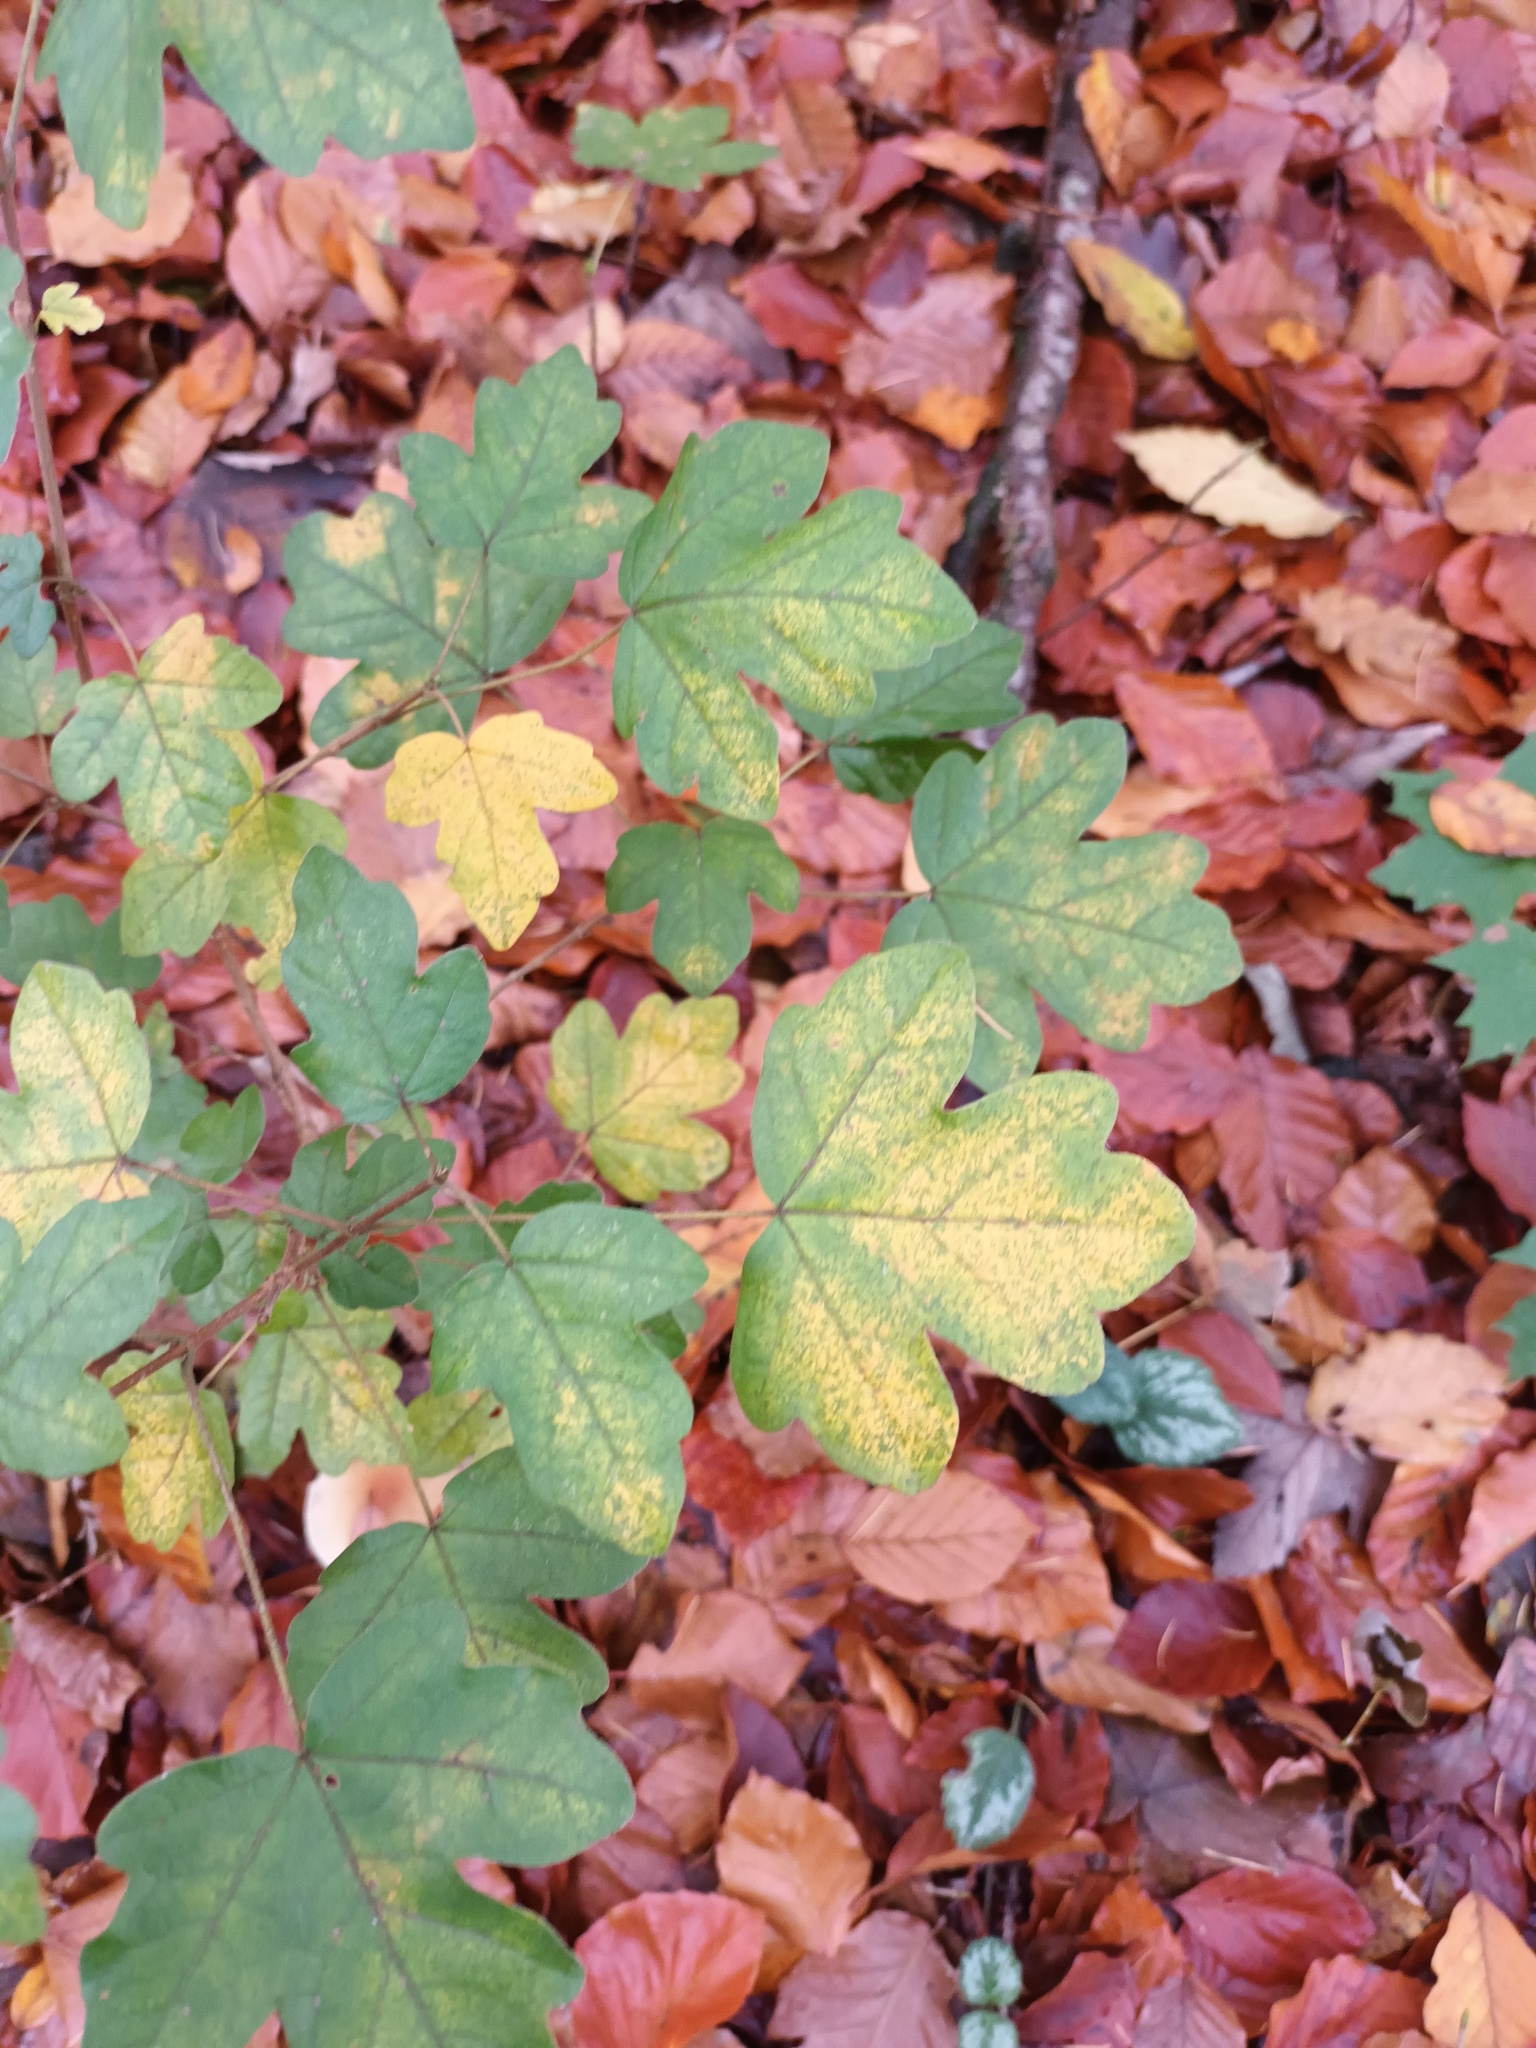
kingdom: Plantae
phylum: Tracheophyta
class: Magnoliopsida
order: Sapindales
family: Sapindaceae
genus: Acer
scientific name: Acer campestre
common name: Field maple
